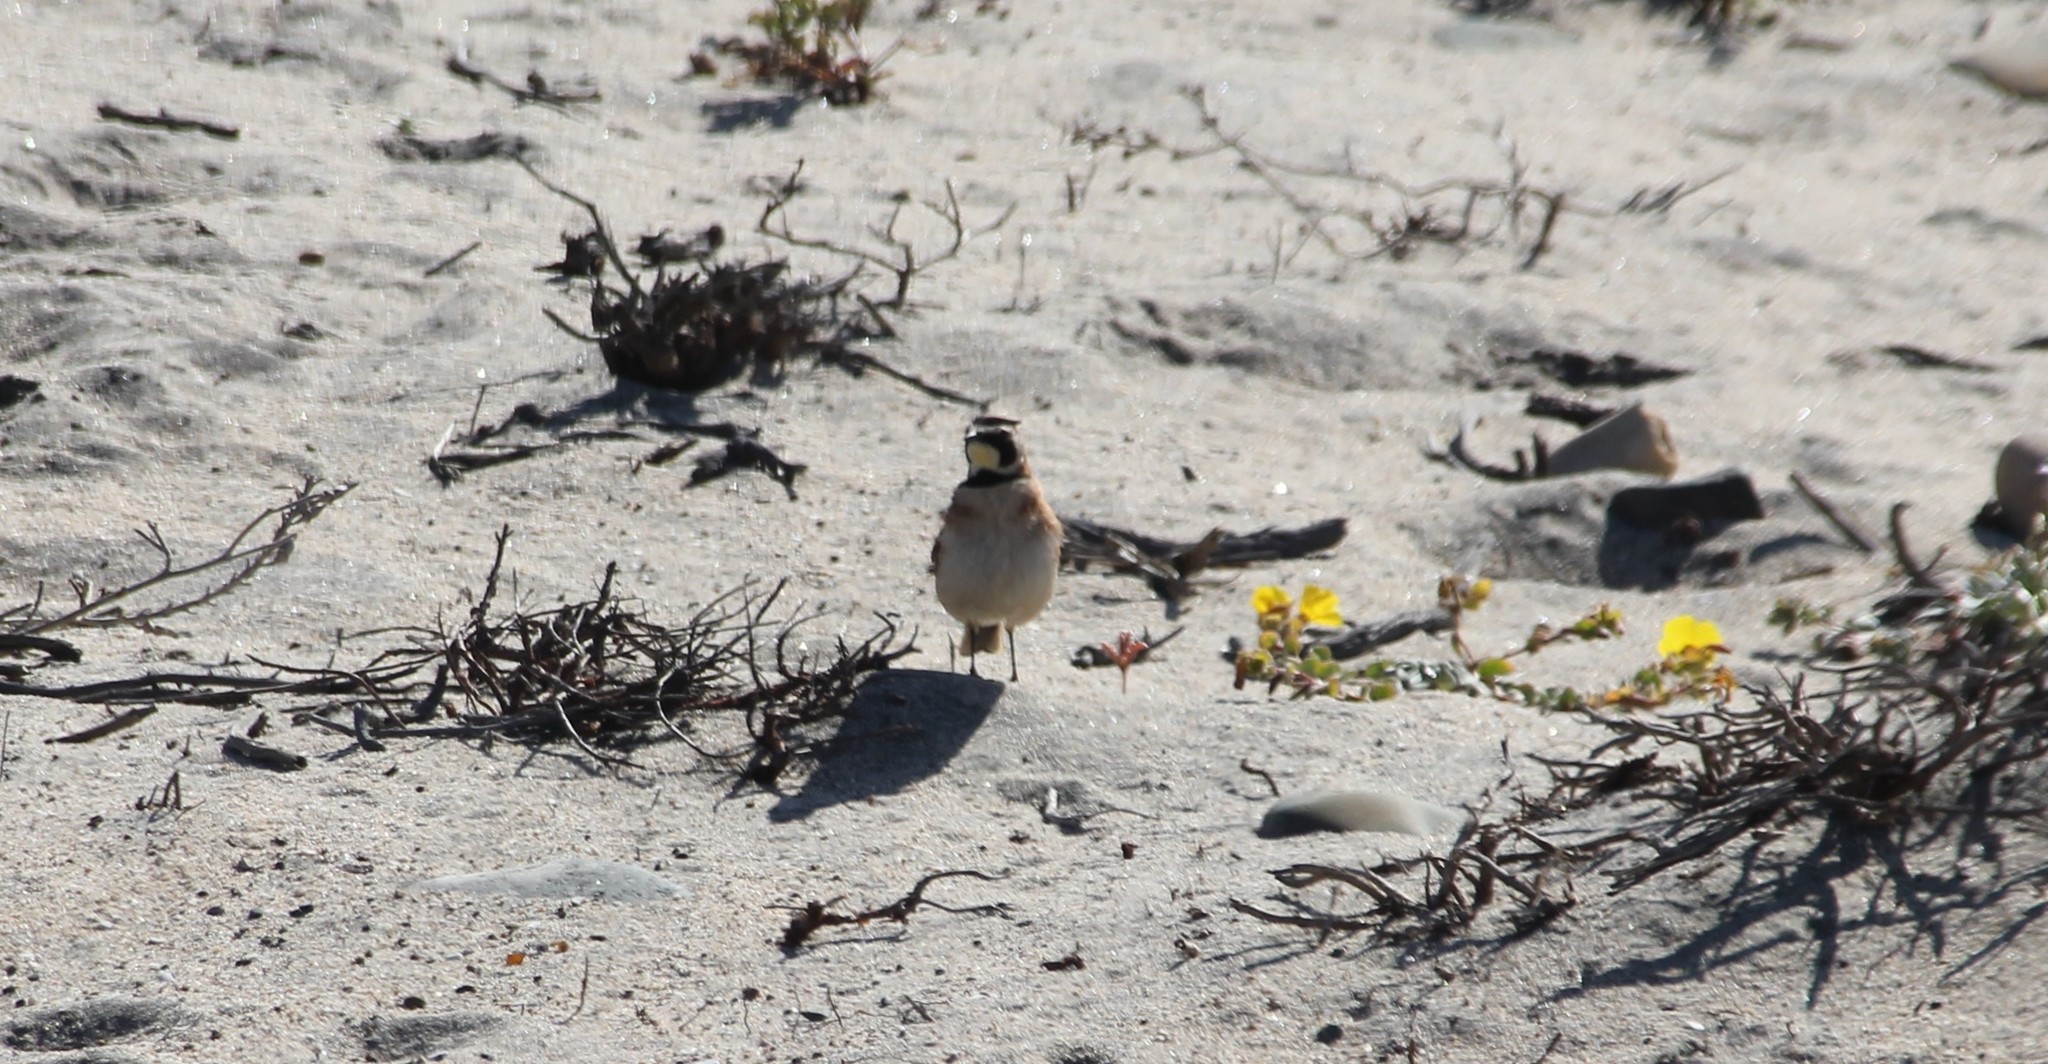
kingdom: Animalia
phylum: Chordata
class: Aves
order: Passeriformes
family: Alaudidae
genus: Eremophila
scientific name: Eremophila alpestris
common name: Horned lark
